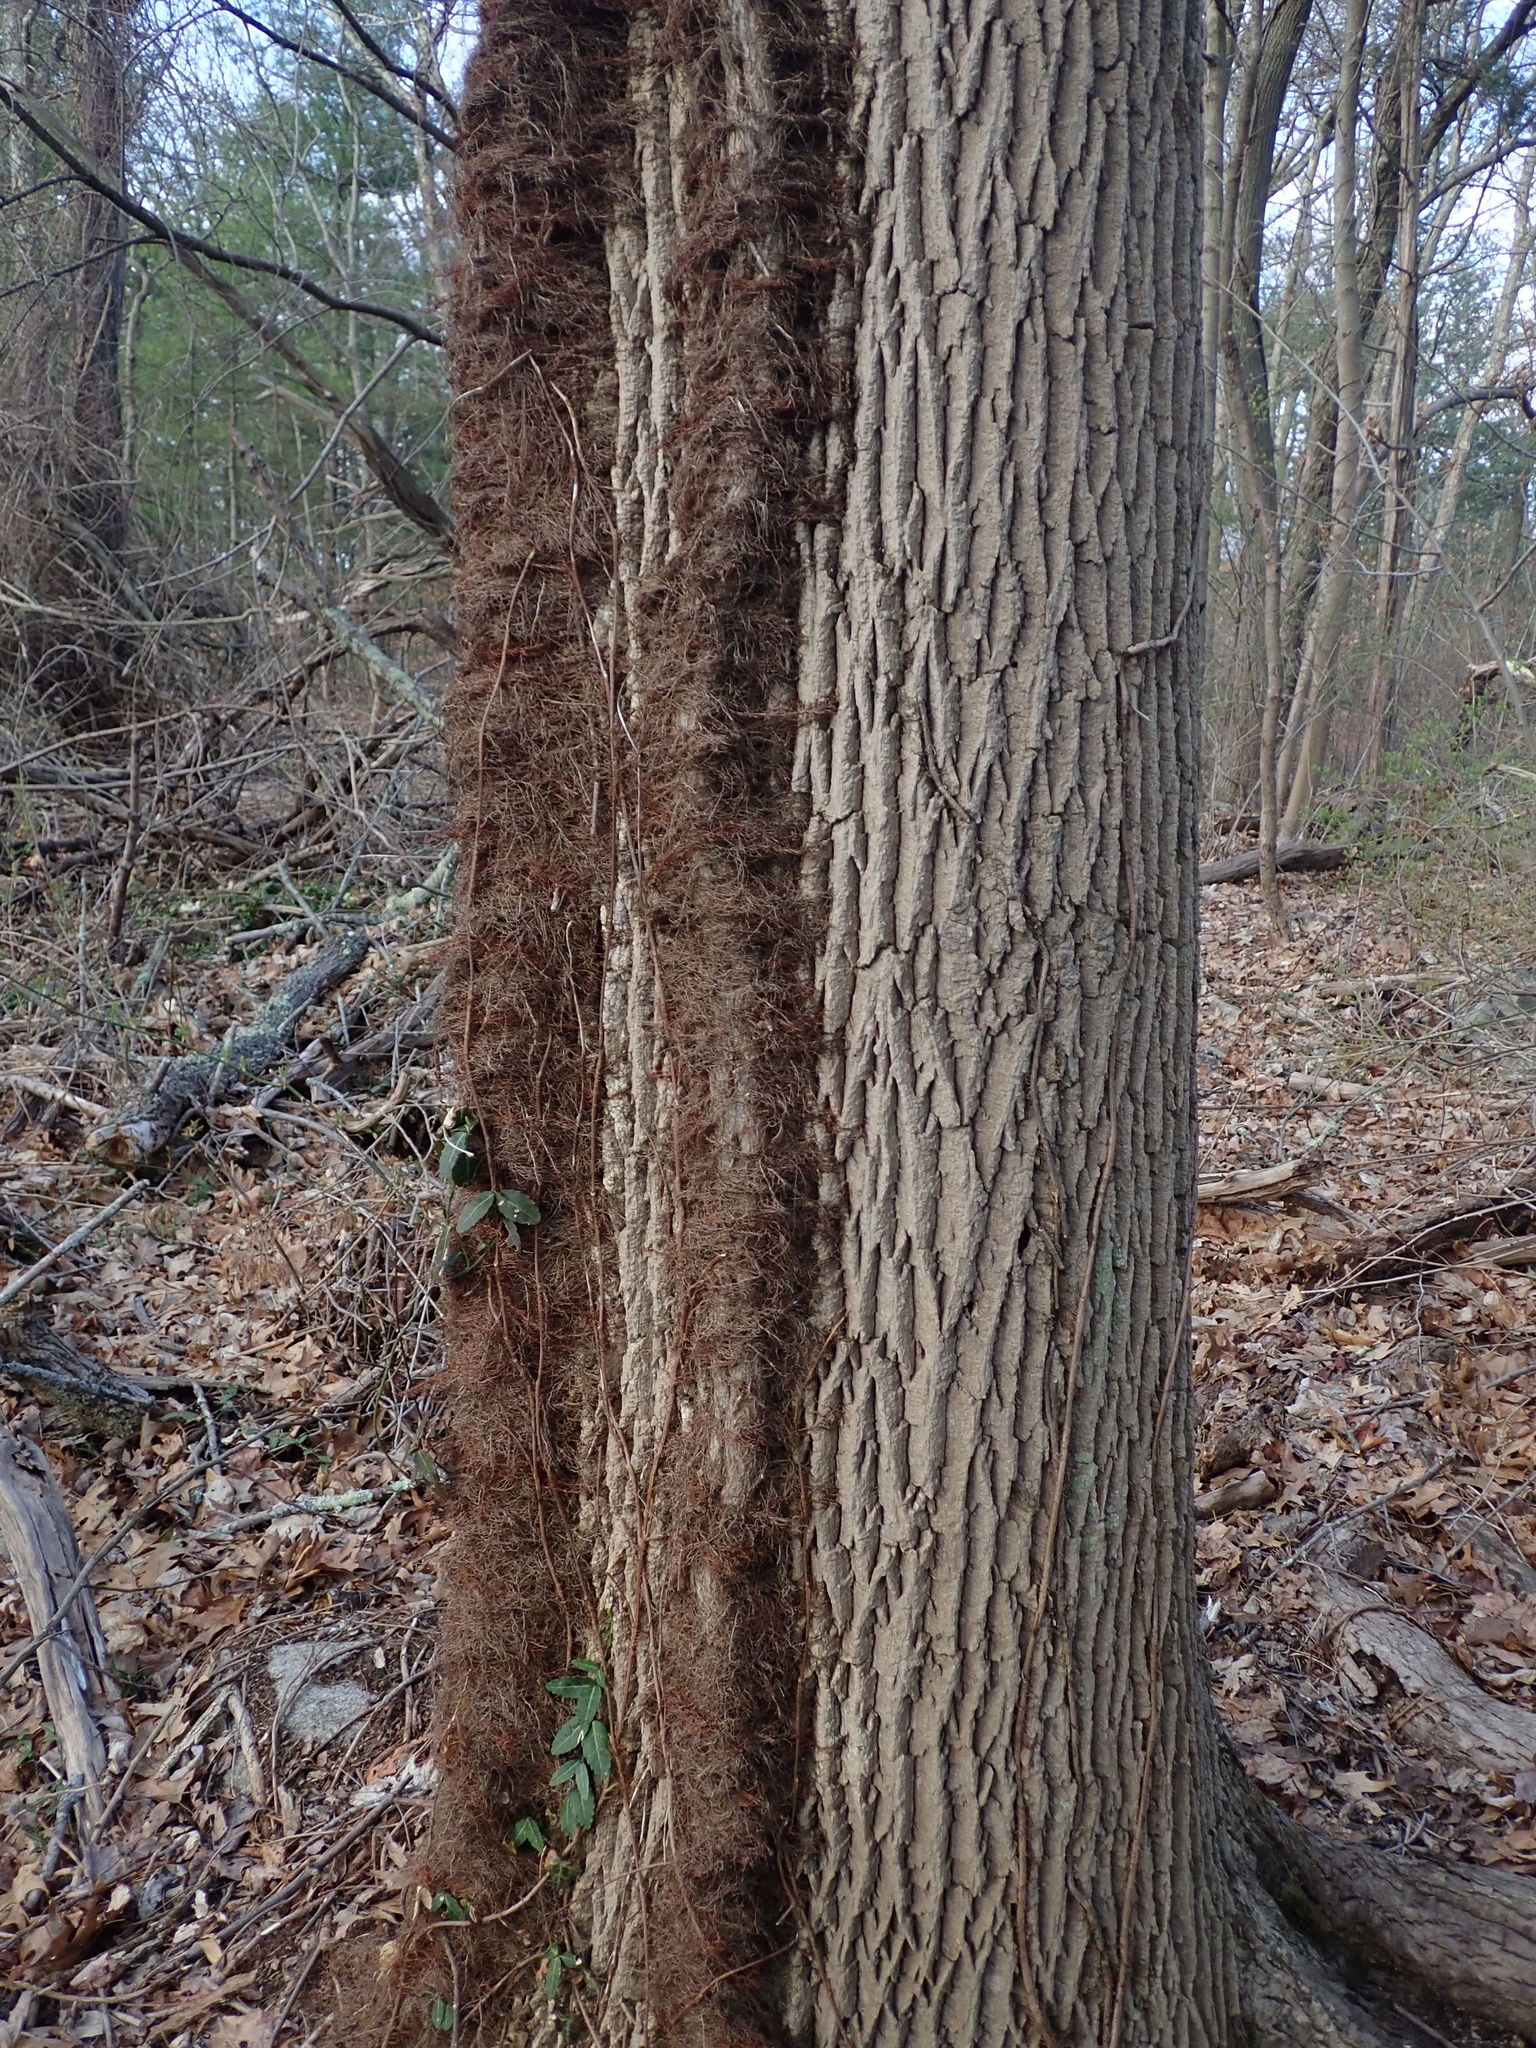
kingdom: Plantae
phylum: Tracheophyta
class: Magnoliopsida
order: Sapindales
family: Anacardiaceae
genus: Toxicodendron
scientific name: Toxicodendron radicans
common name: Poison ivy
